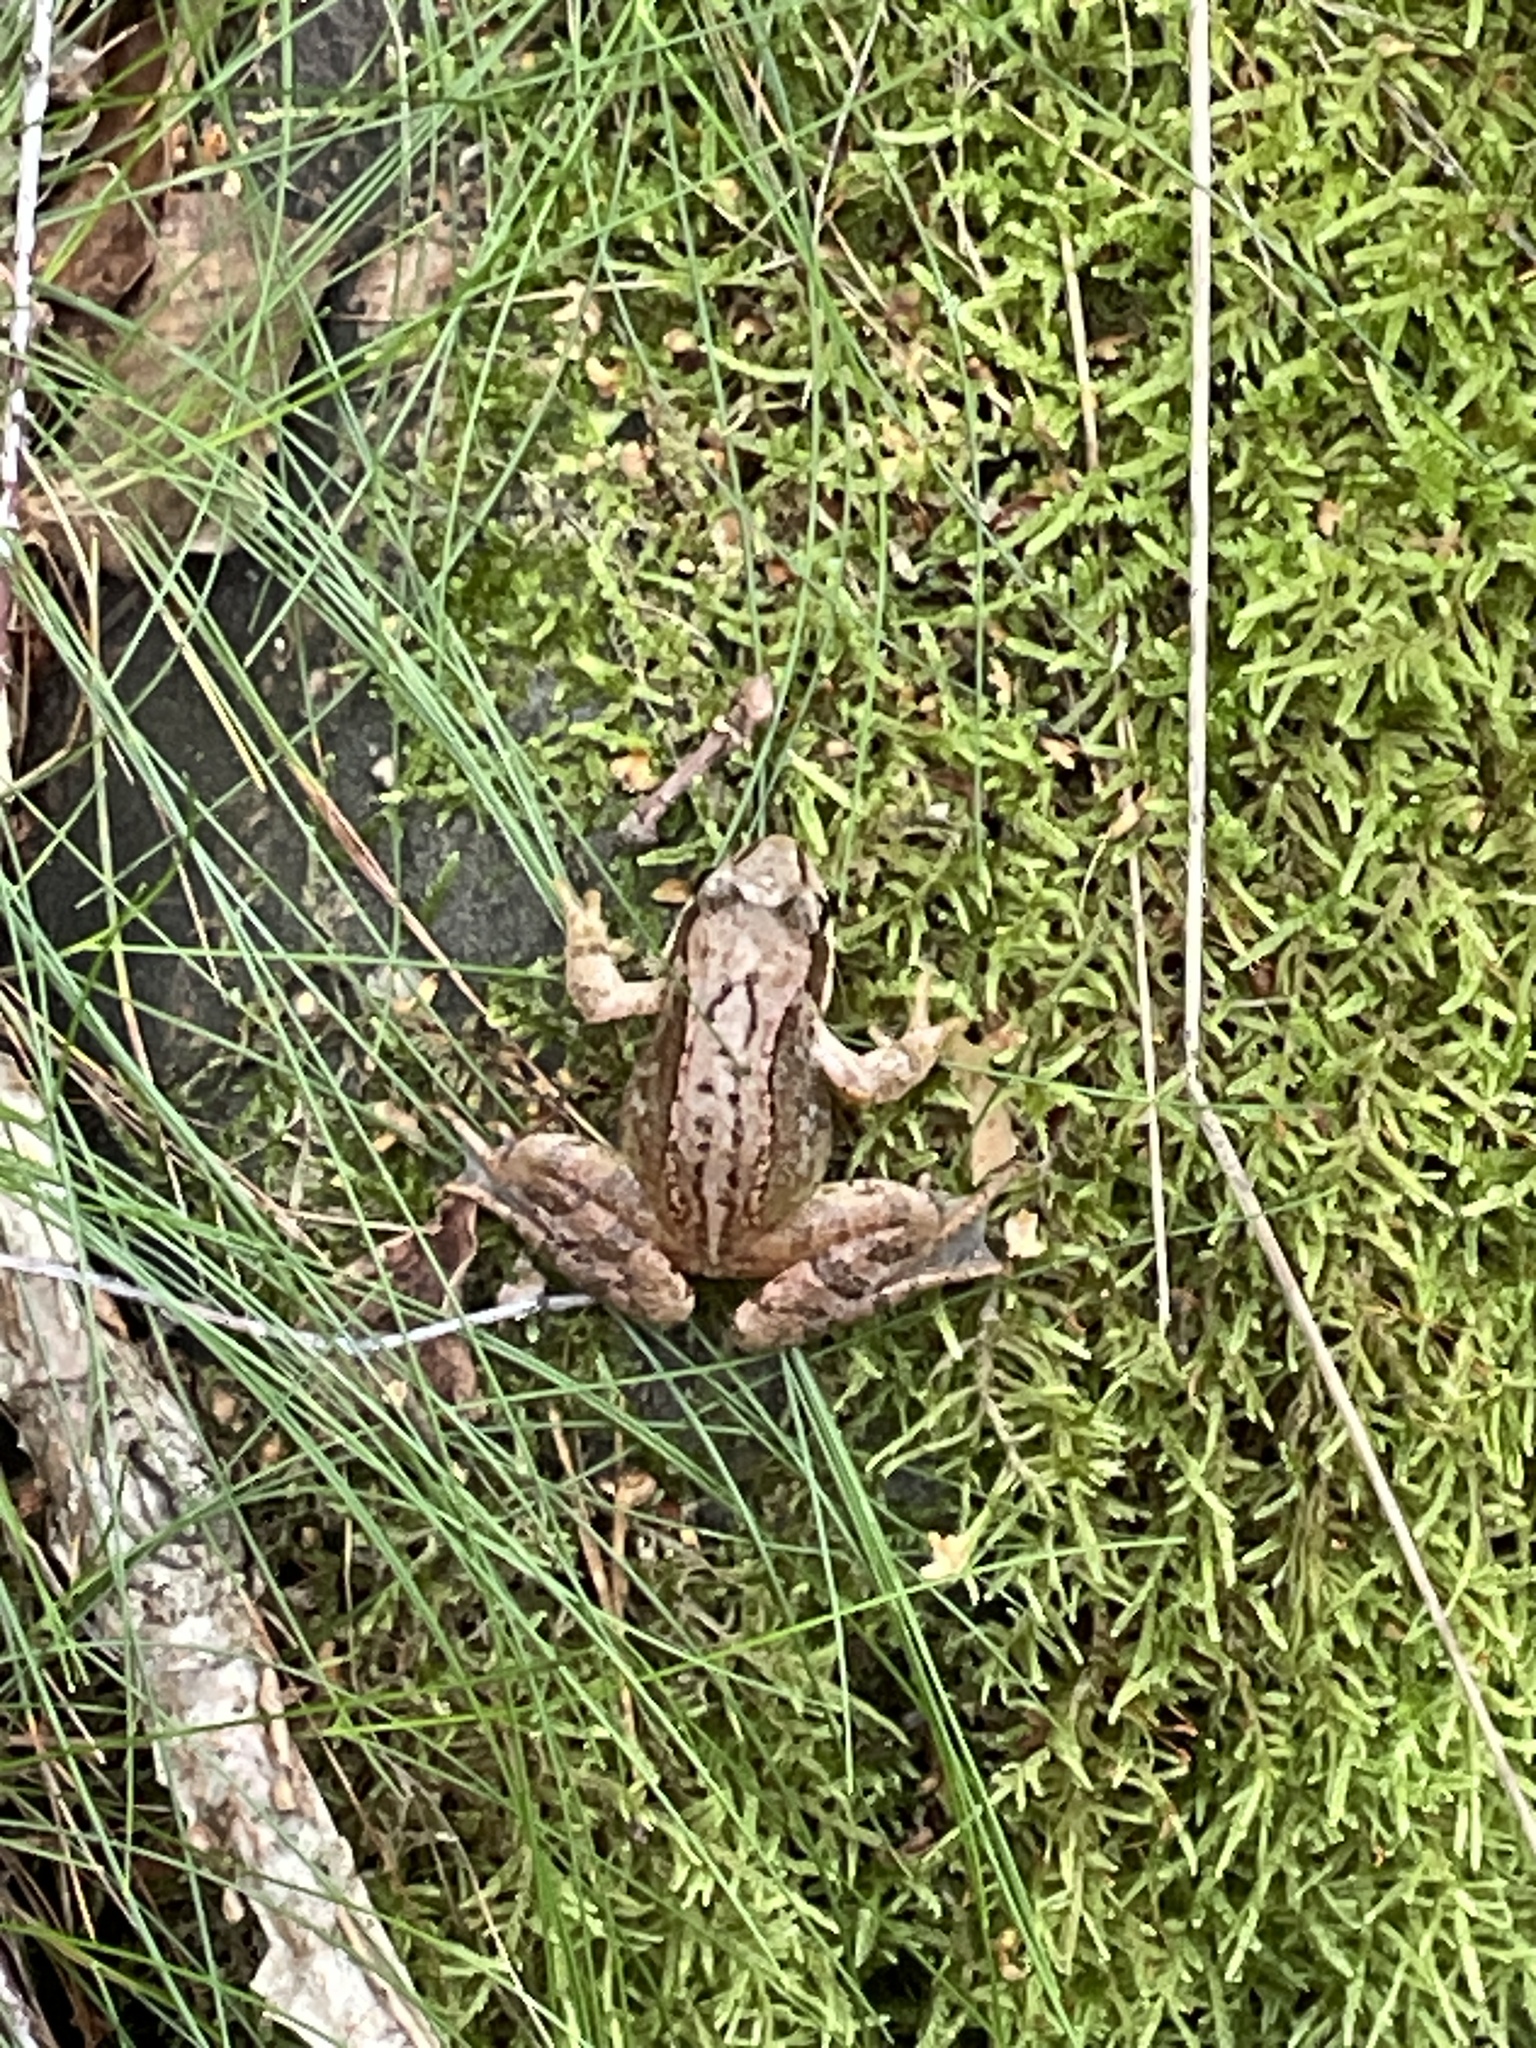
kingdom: Animalia
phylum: Chordata
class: Amphibia
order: Anura
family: Ranidae
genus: Rana
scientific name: Rana temporaria
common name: Common frog
